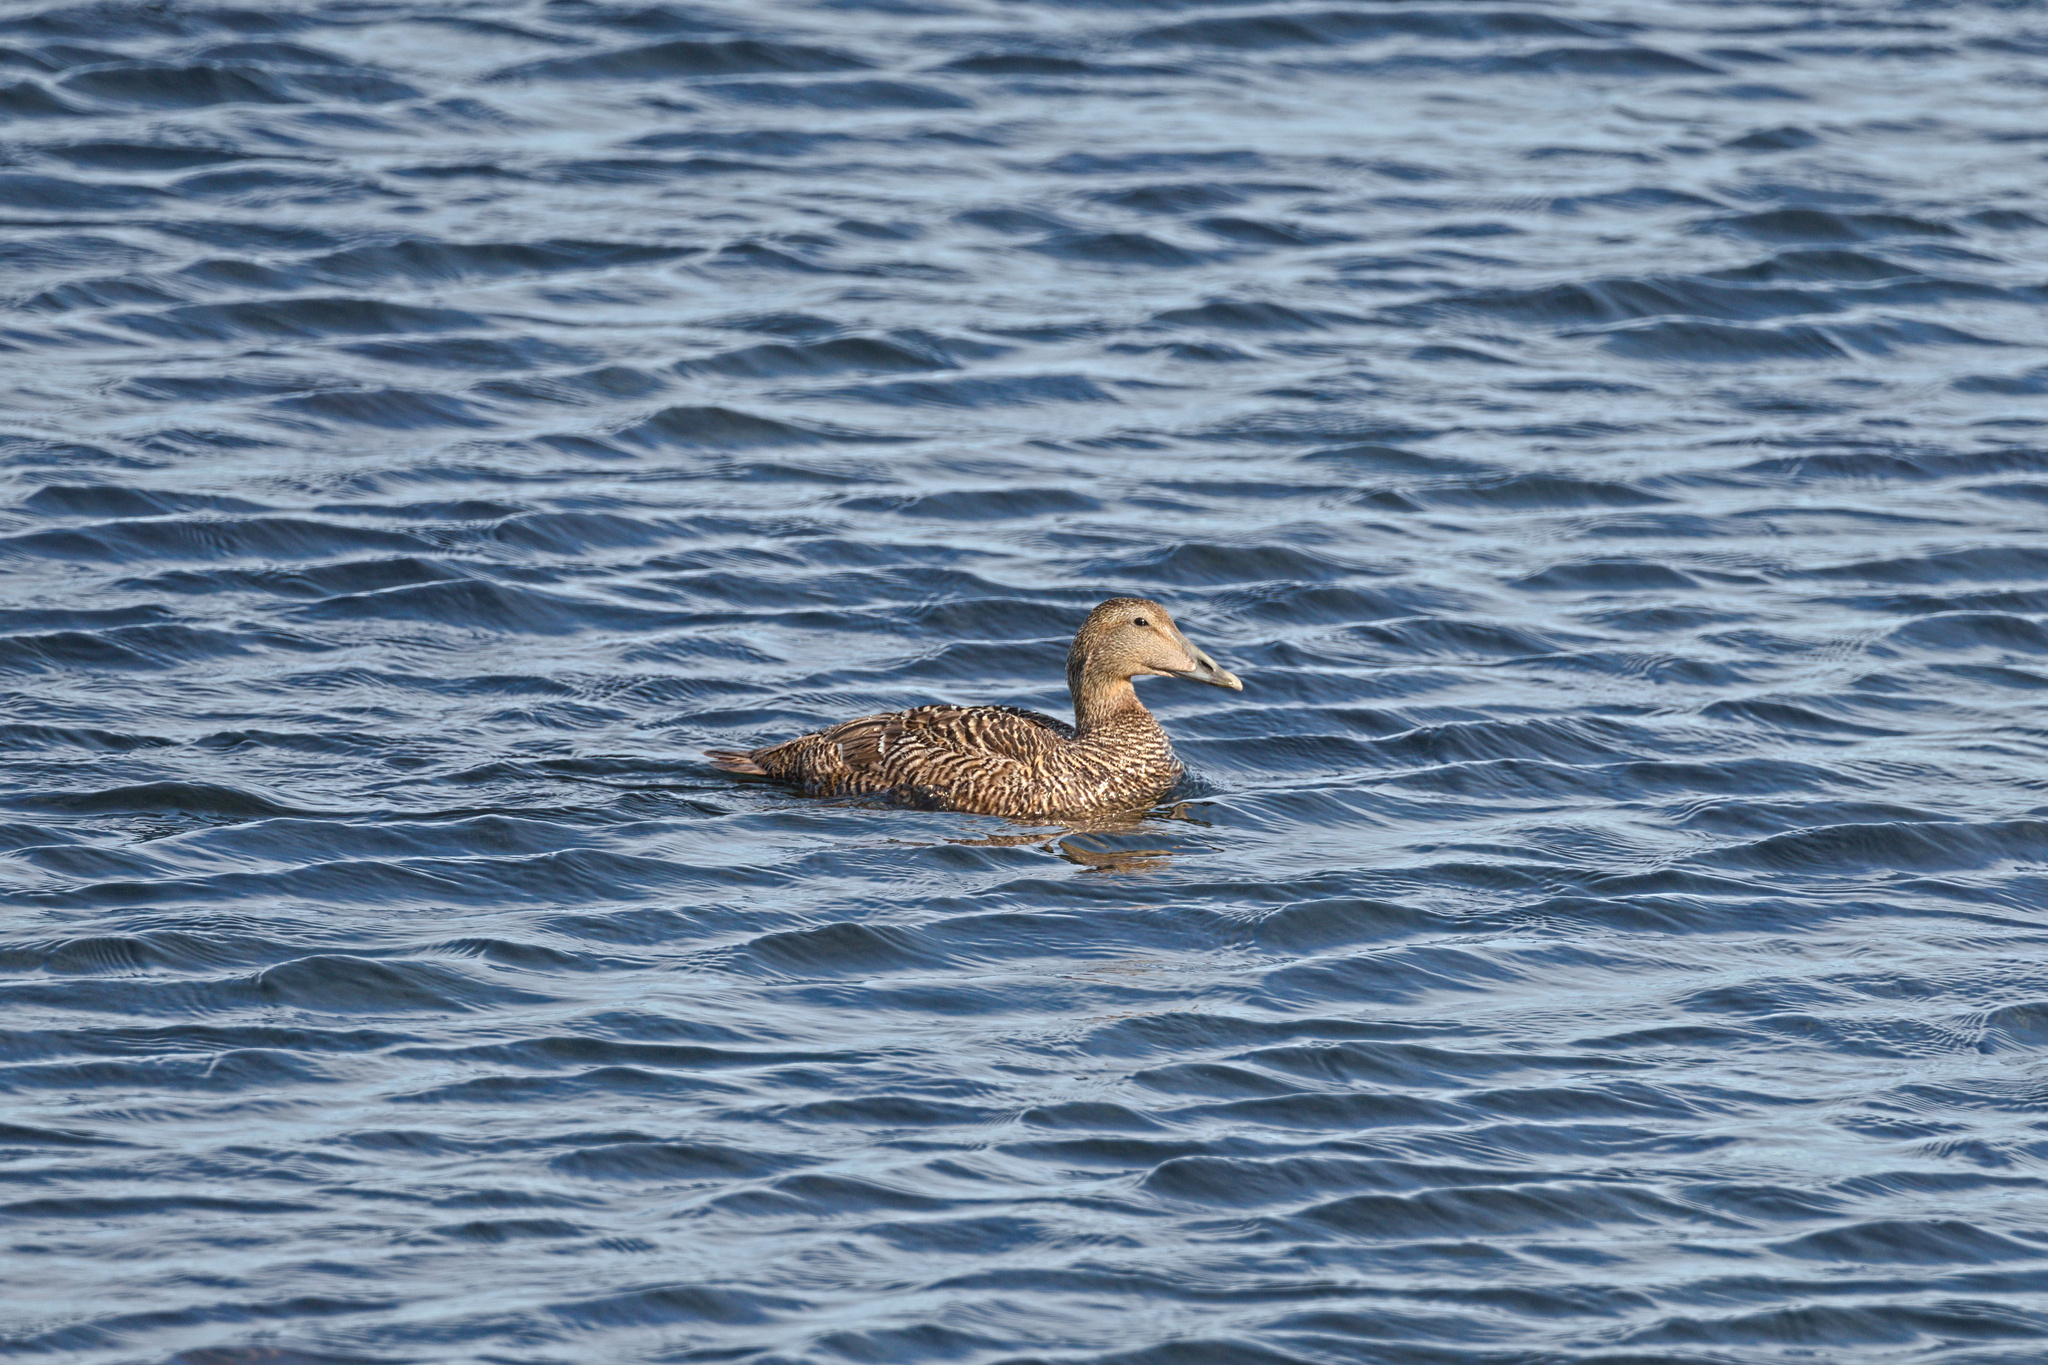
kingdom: Animalia
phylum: Chordata
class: Aves
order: Anseriformes
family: Anatidae
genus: Somateria
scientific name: Somateria mollissima
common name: Common eider
